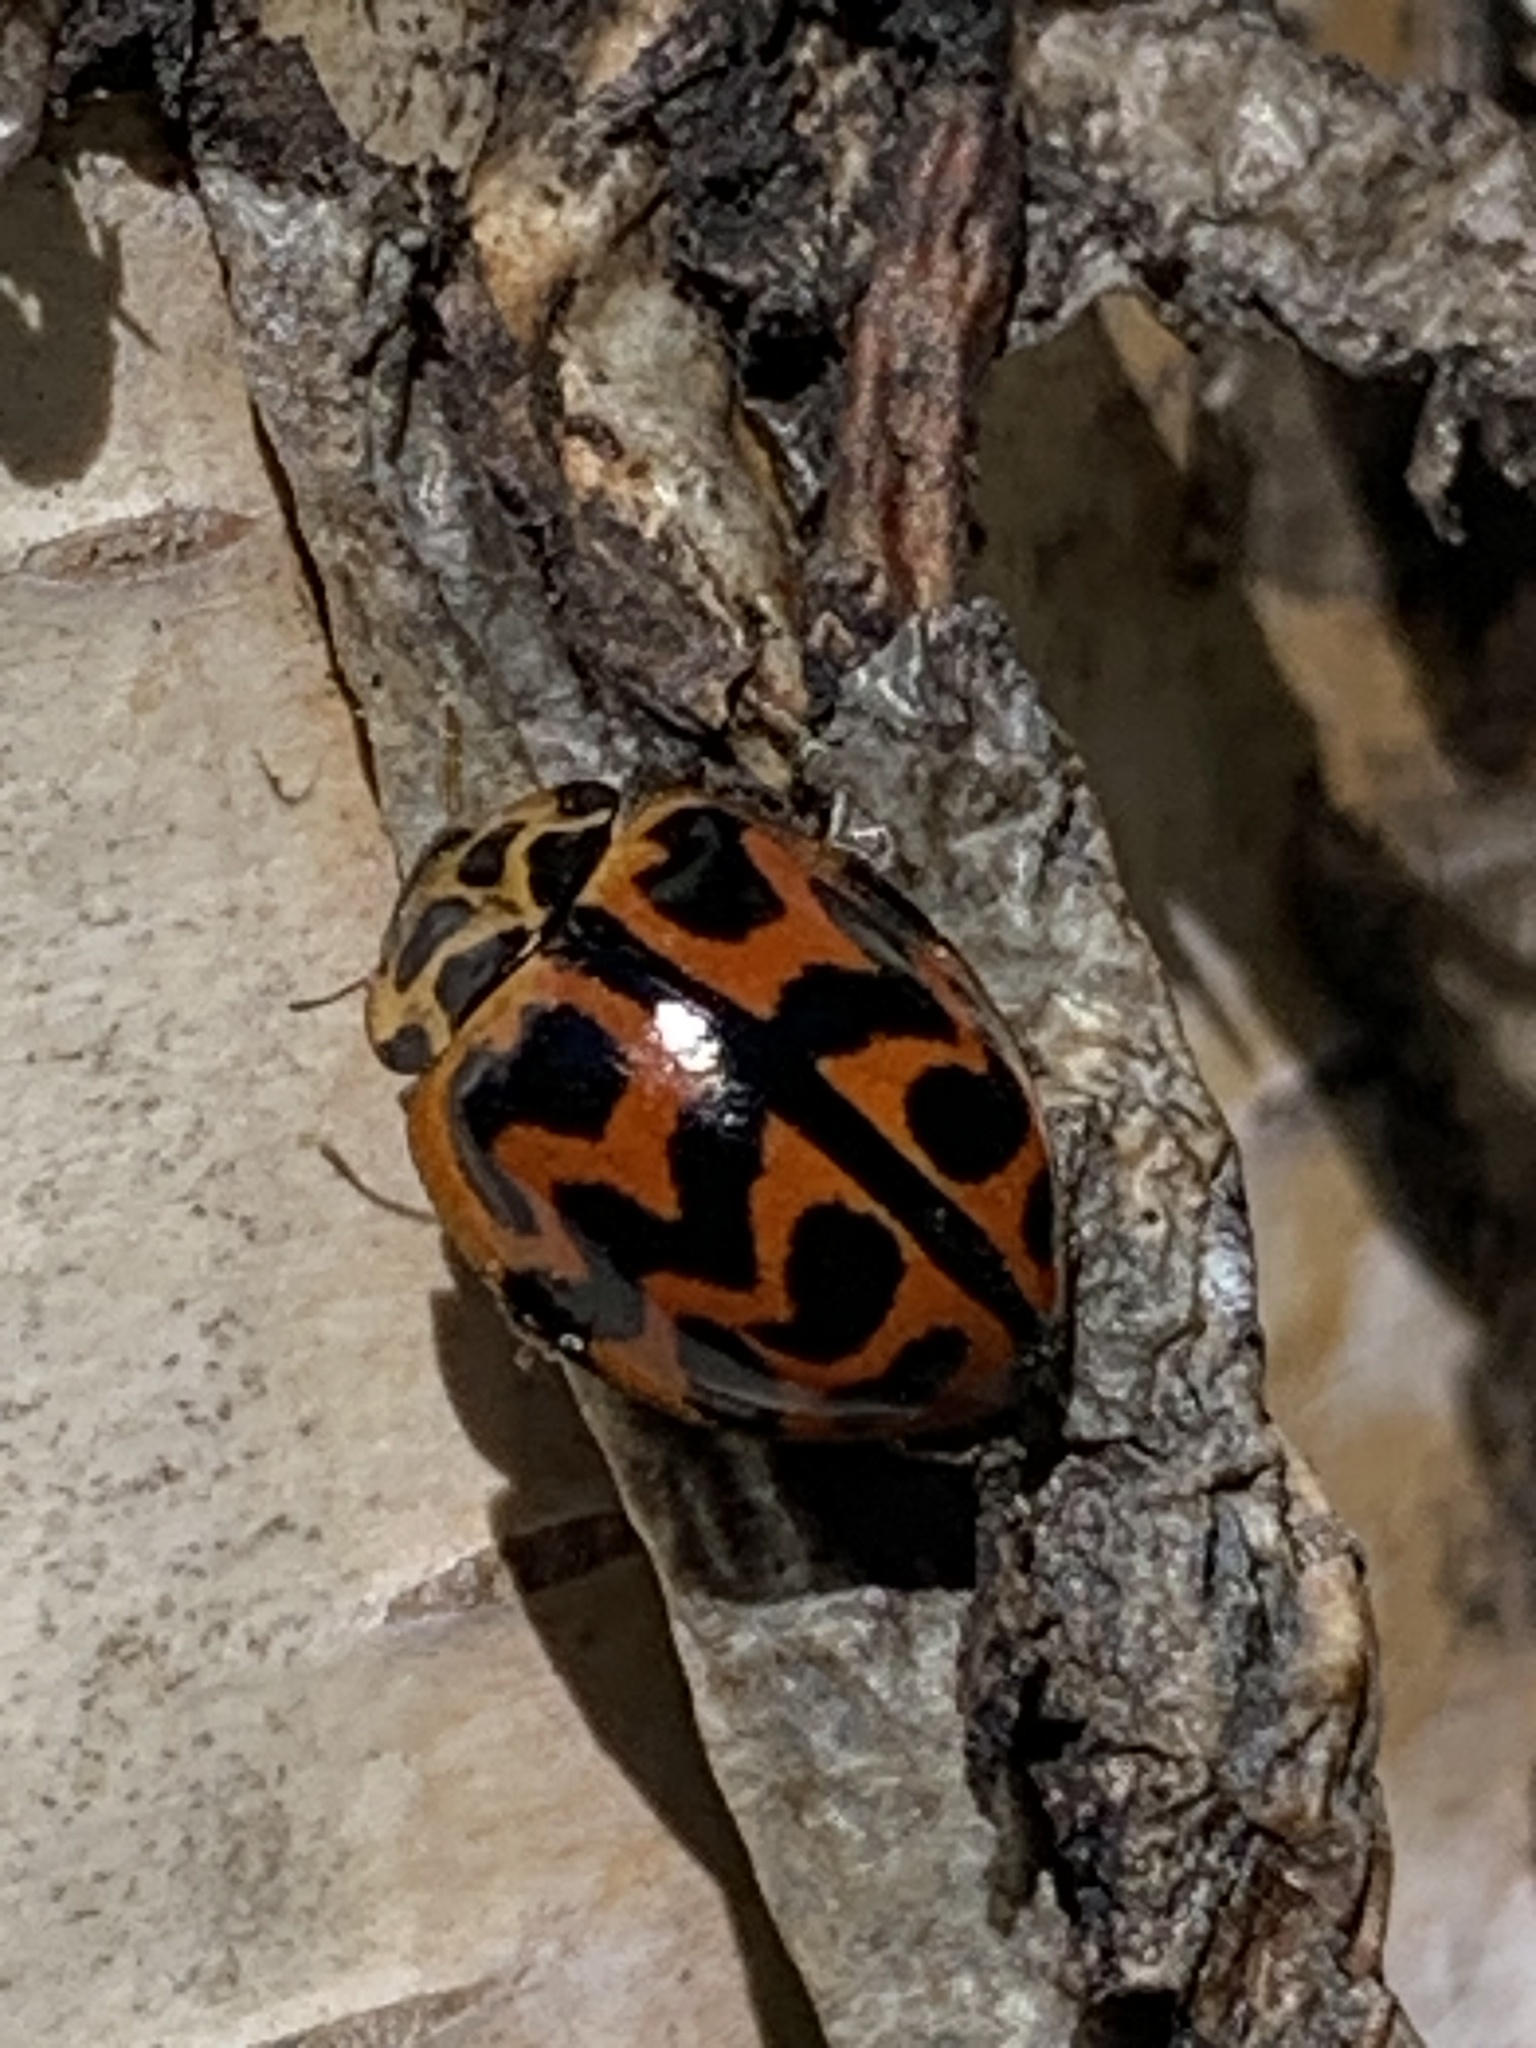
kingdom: Animalia
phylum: Arthropoda
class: Insecta
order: Coleoptera
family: Coccinellidae
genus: Cleobora
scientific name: Cleobora
